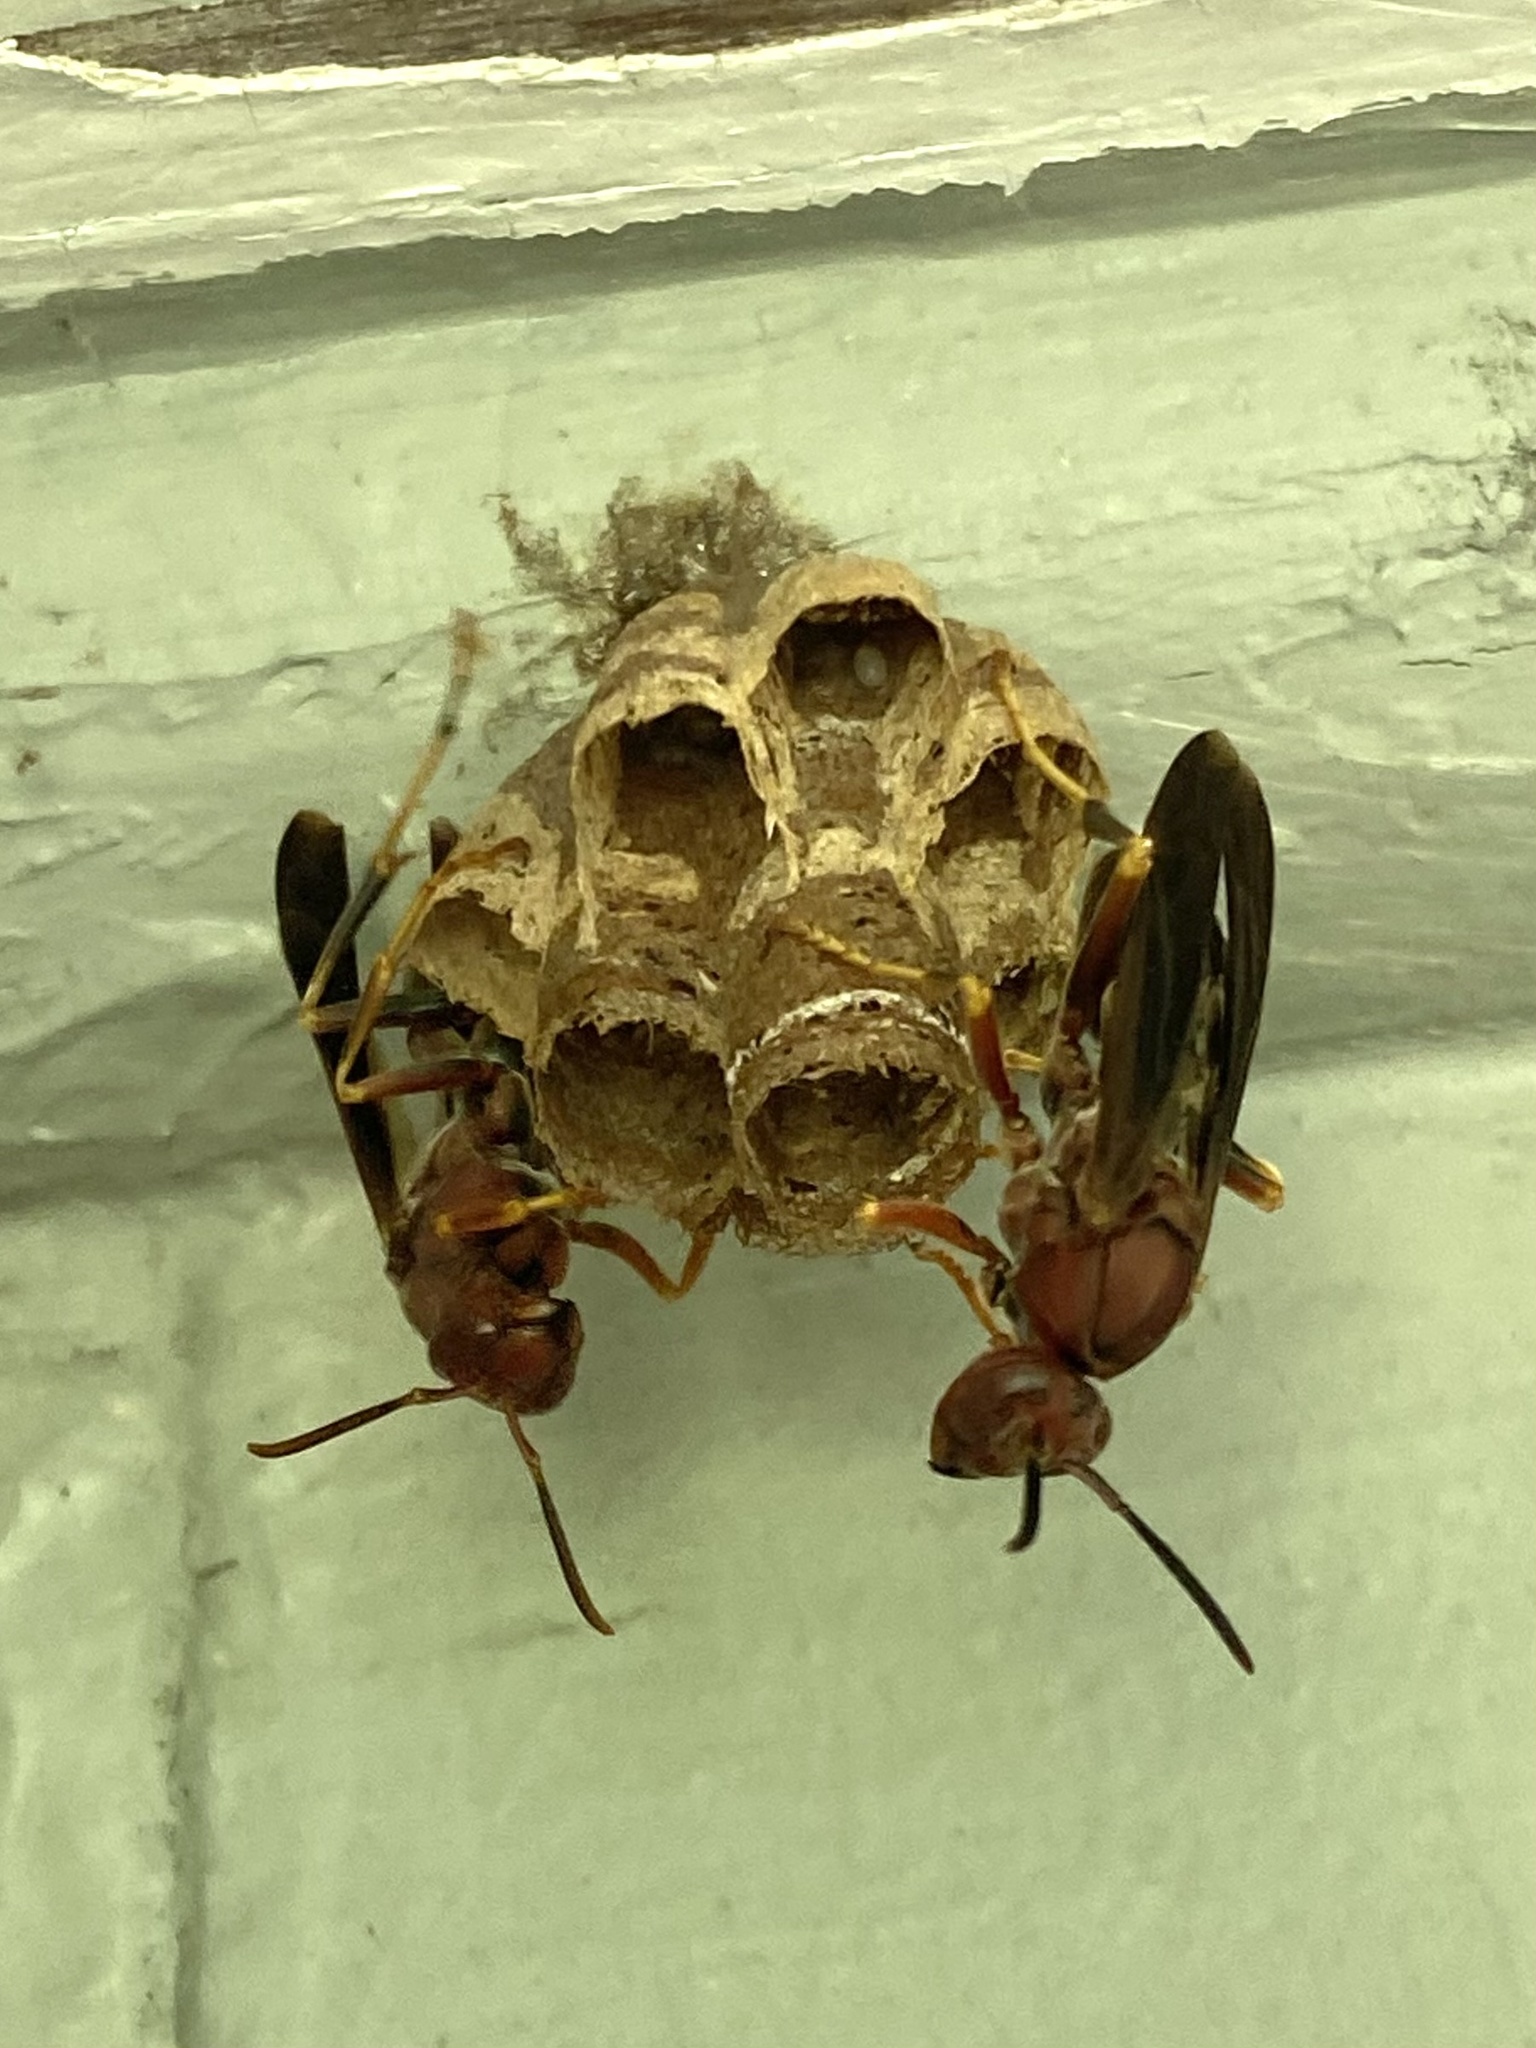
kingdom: Animalia
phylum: Arthropoda
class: Insecta
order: Hymenoptera
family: Eumenidae
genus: Polistes
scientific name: Polistes metricus
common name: Metric paper wasp
